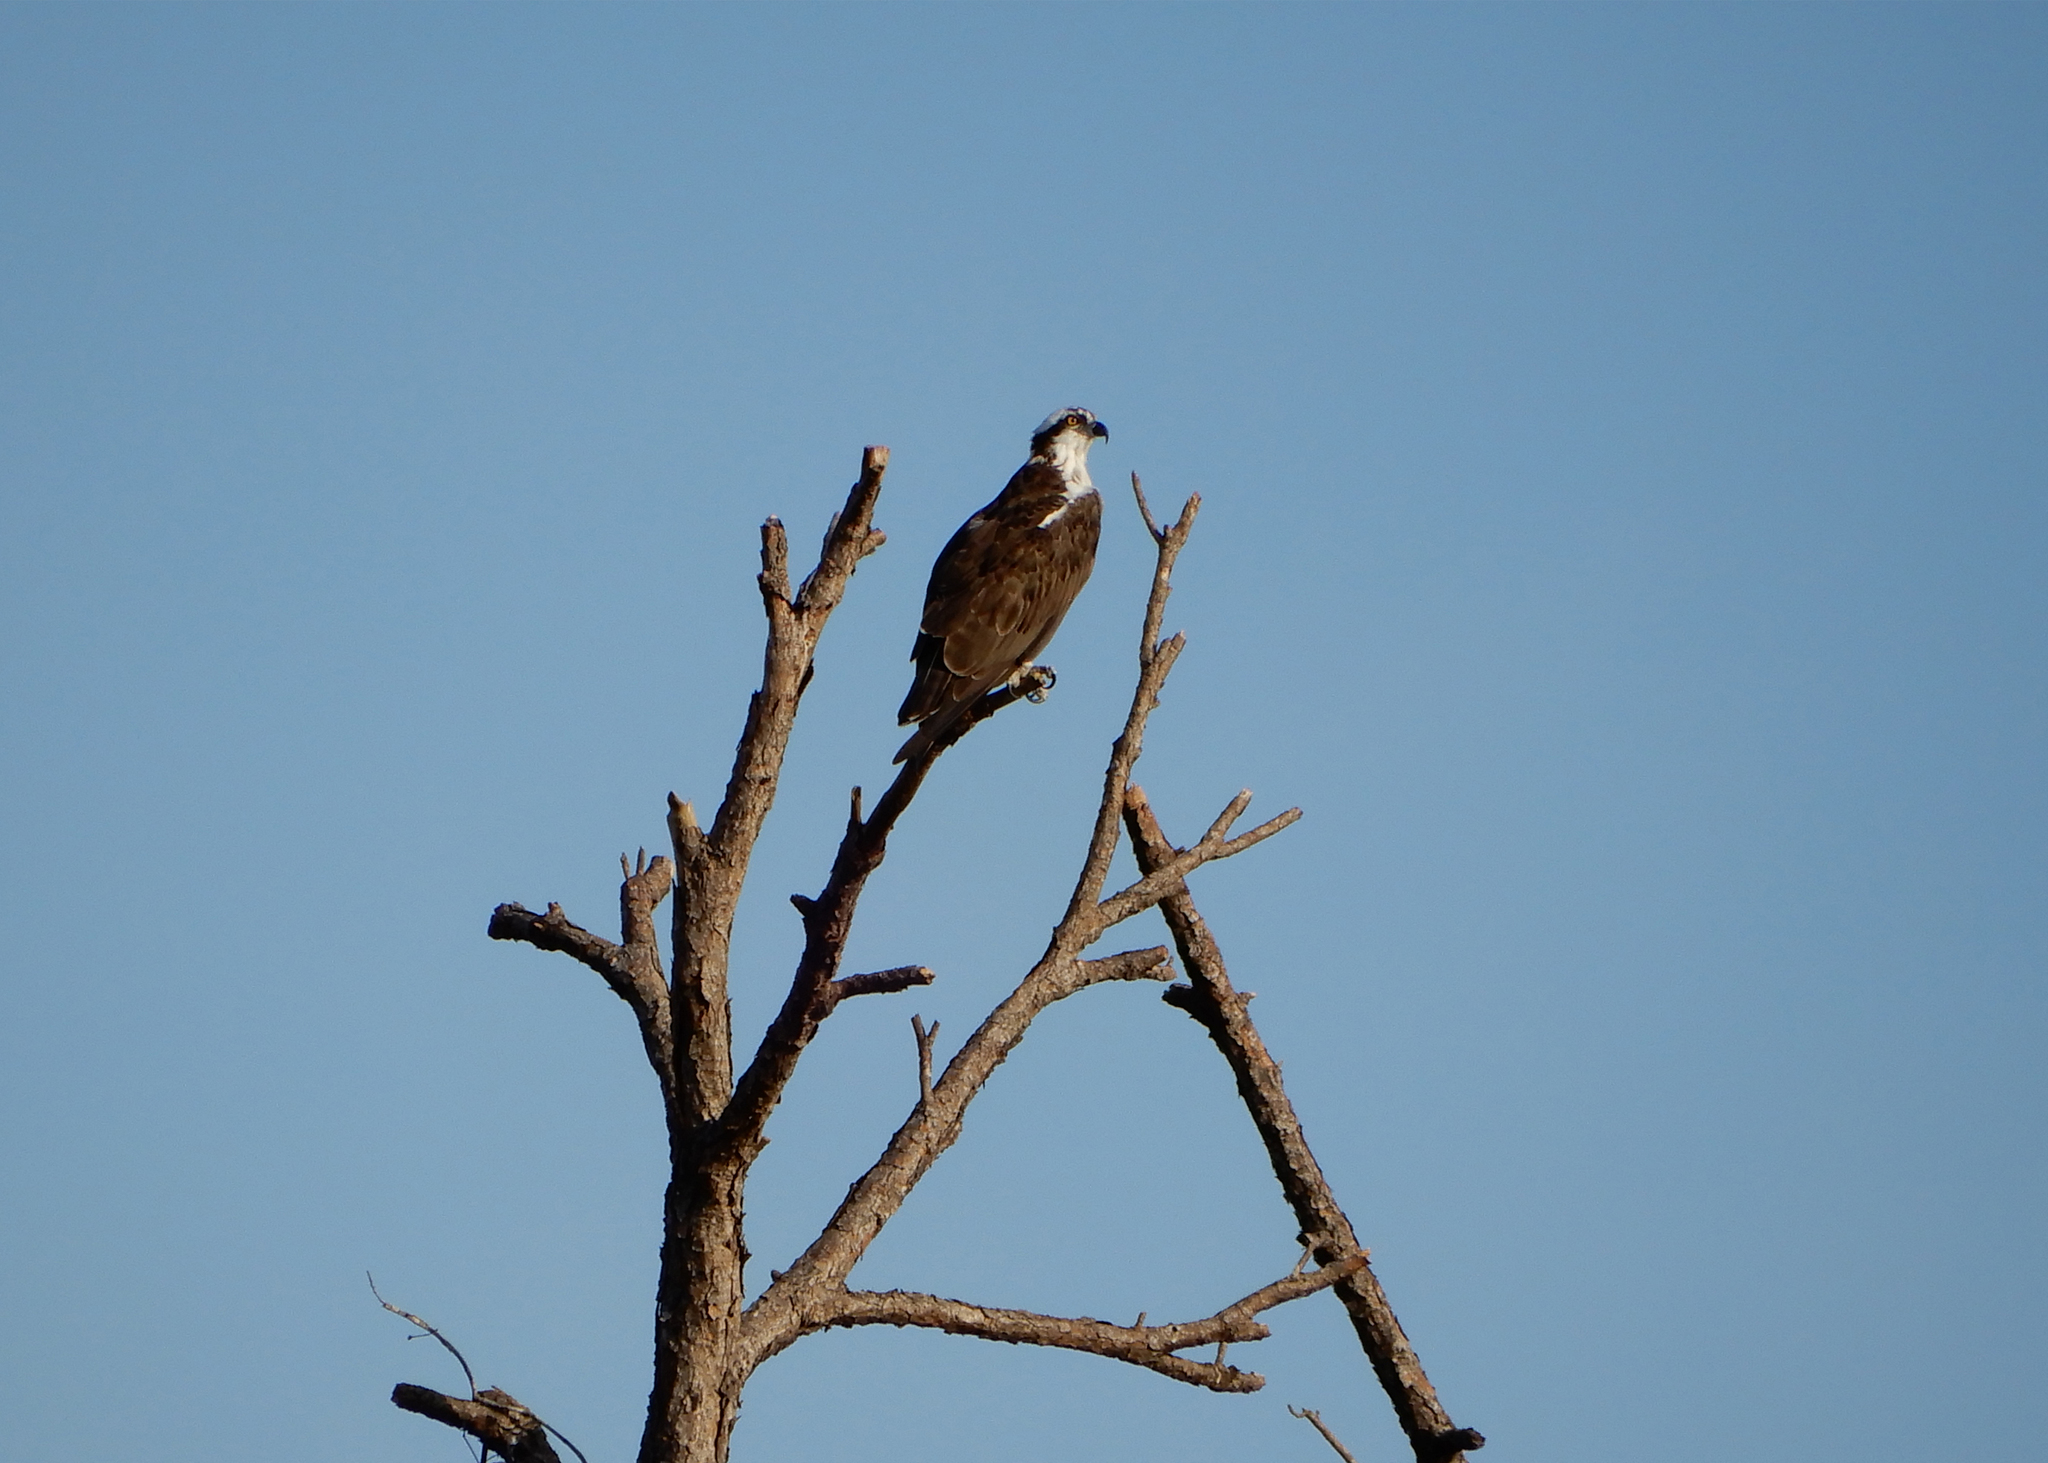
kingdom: Animalia
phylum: Chordata
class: Aves
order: Accipitriformes
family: Pandionidae
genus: Pandion
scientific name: Pandion haliaetus
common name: Osprey
